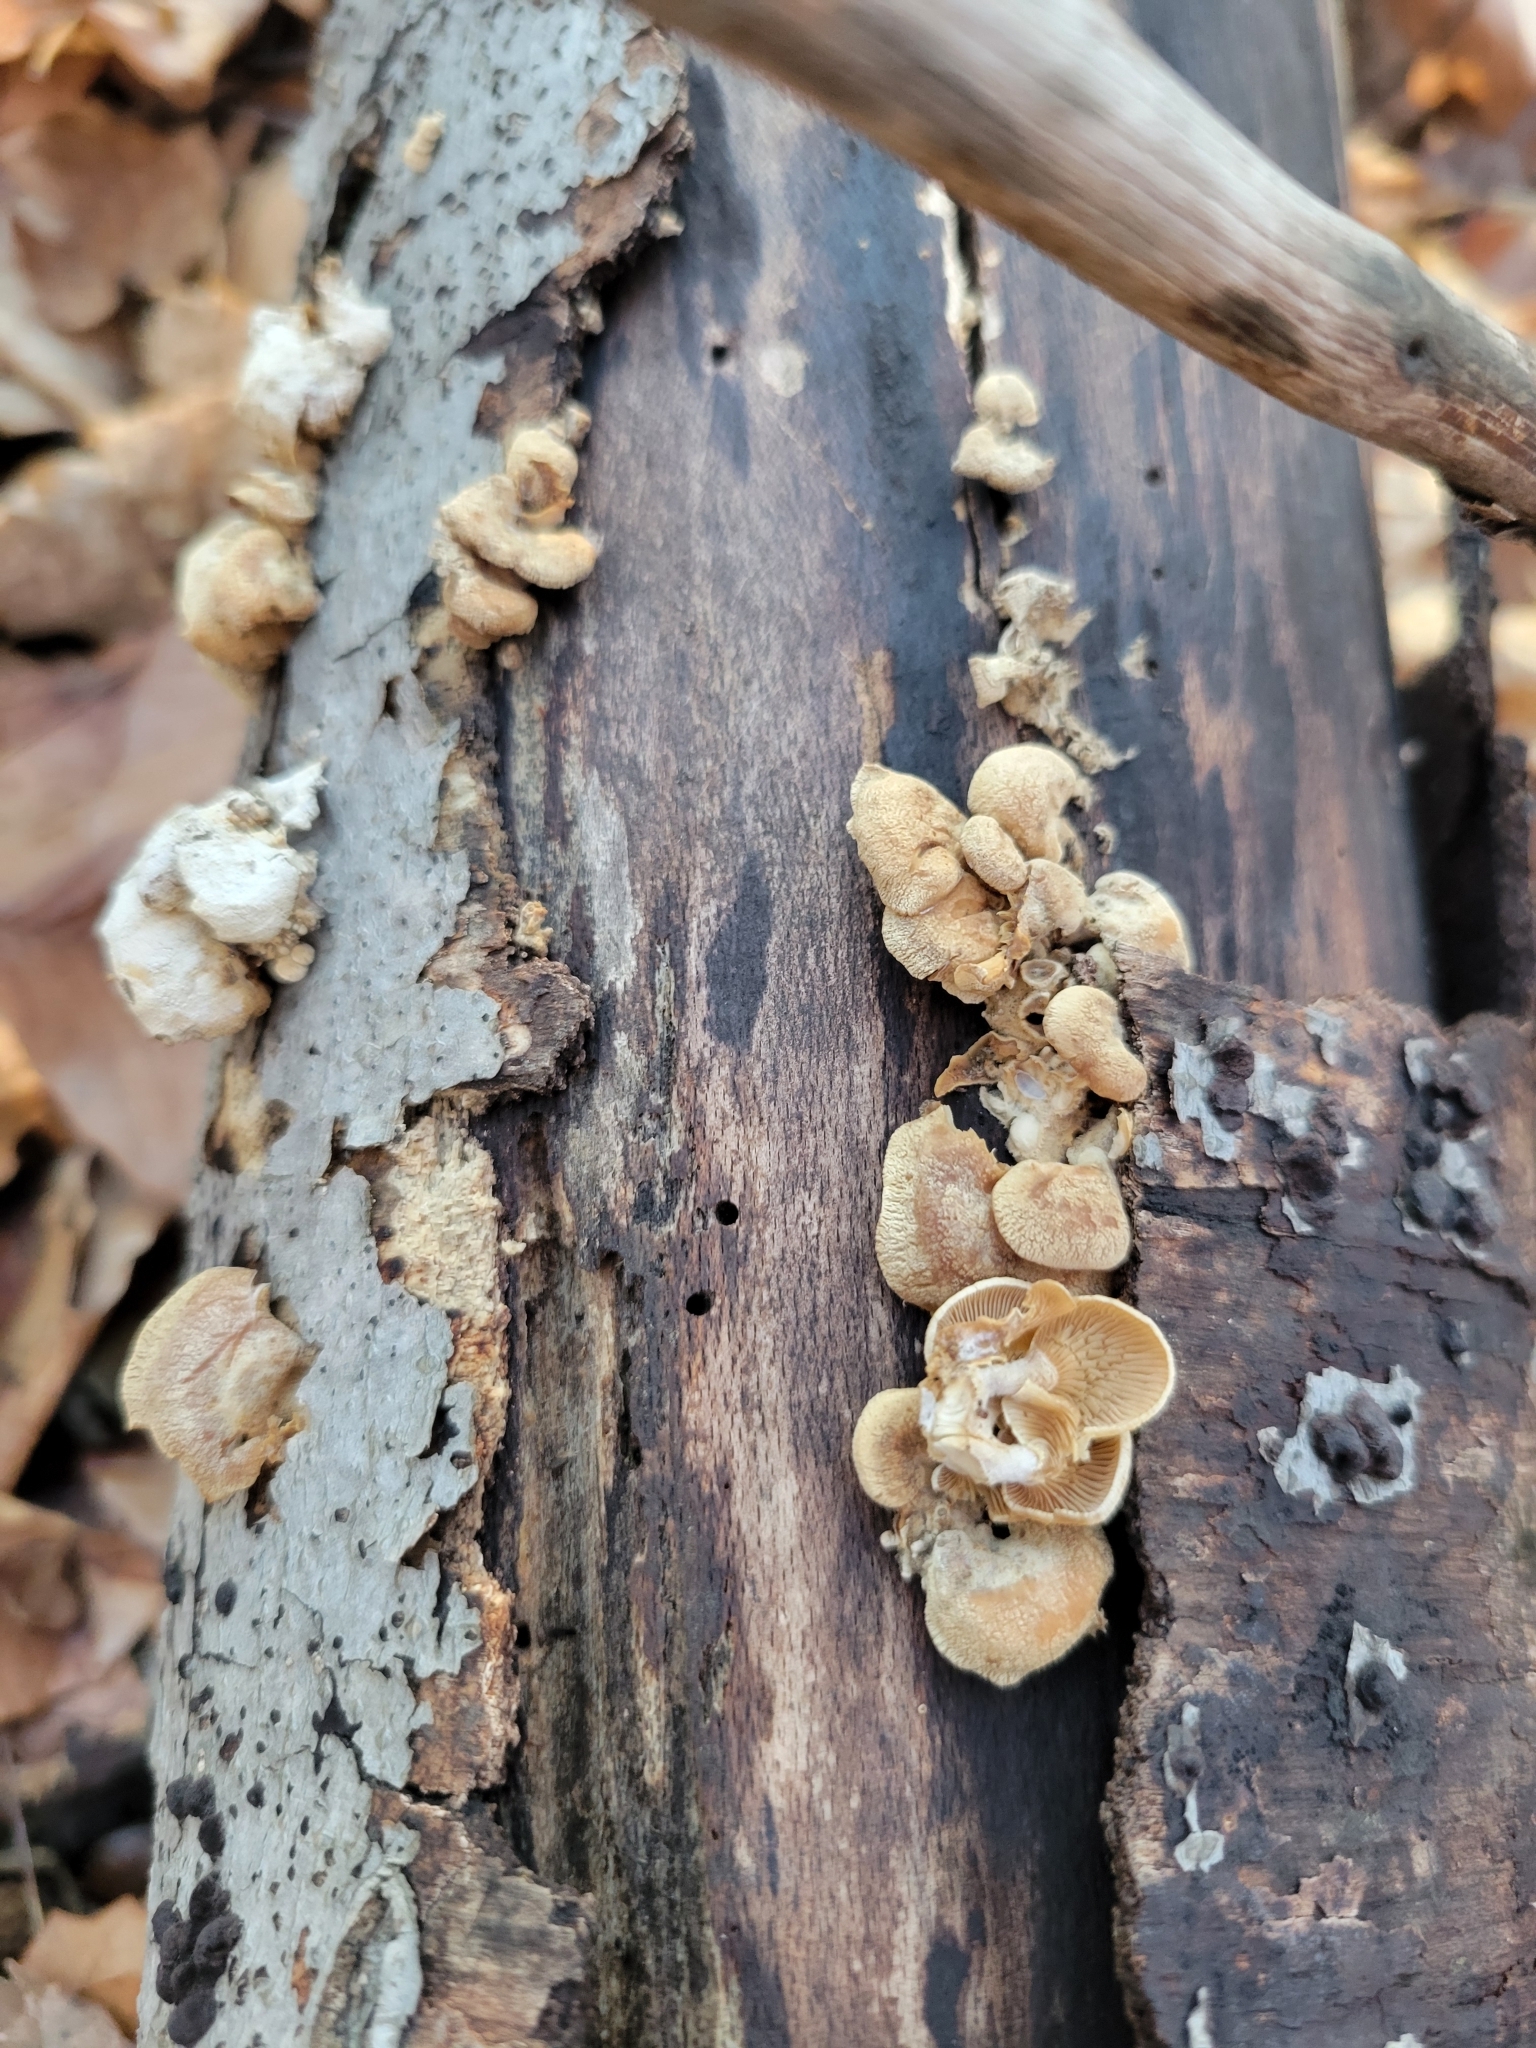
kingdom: Fungi
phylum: Basidiomycota
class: Agaricomycetes
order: Agaricales
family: Mycenaceae
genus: Panellus
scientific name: Panellus stipticus
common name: Bitter oysterling
